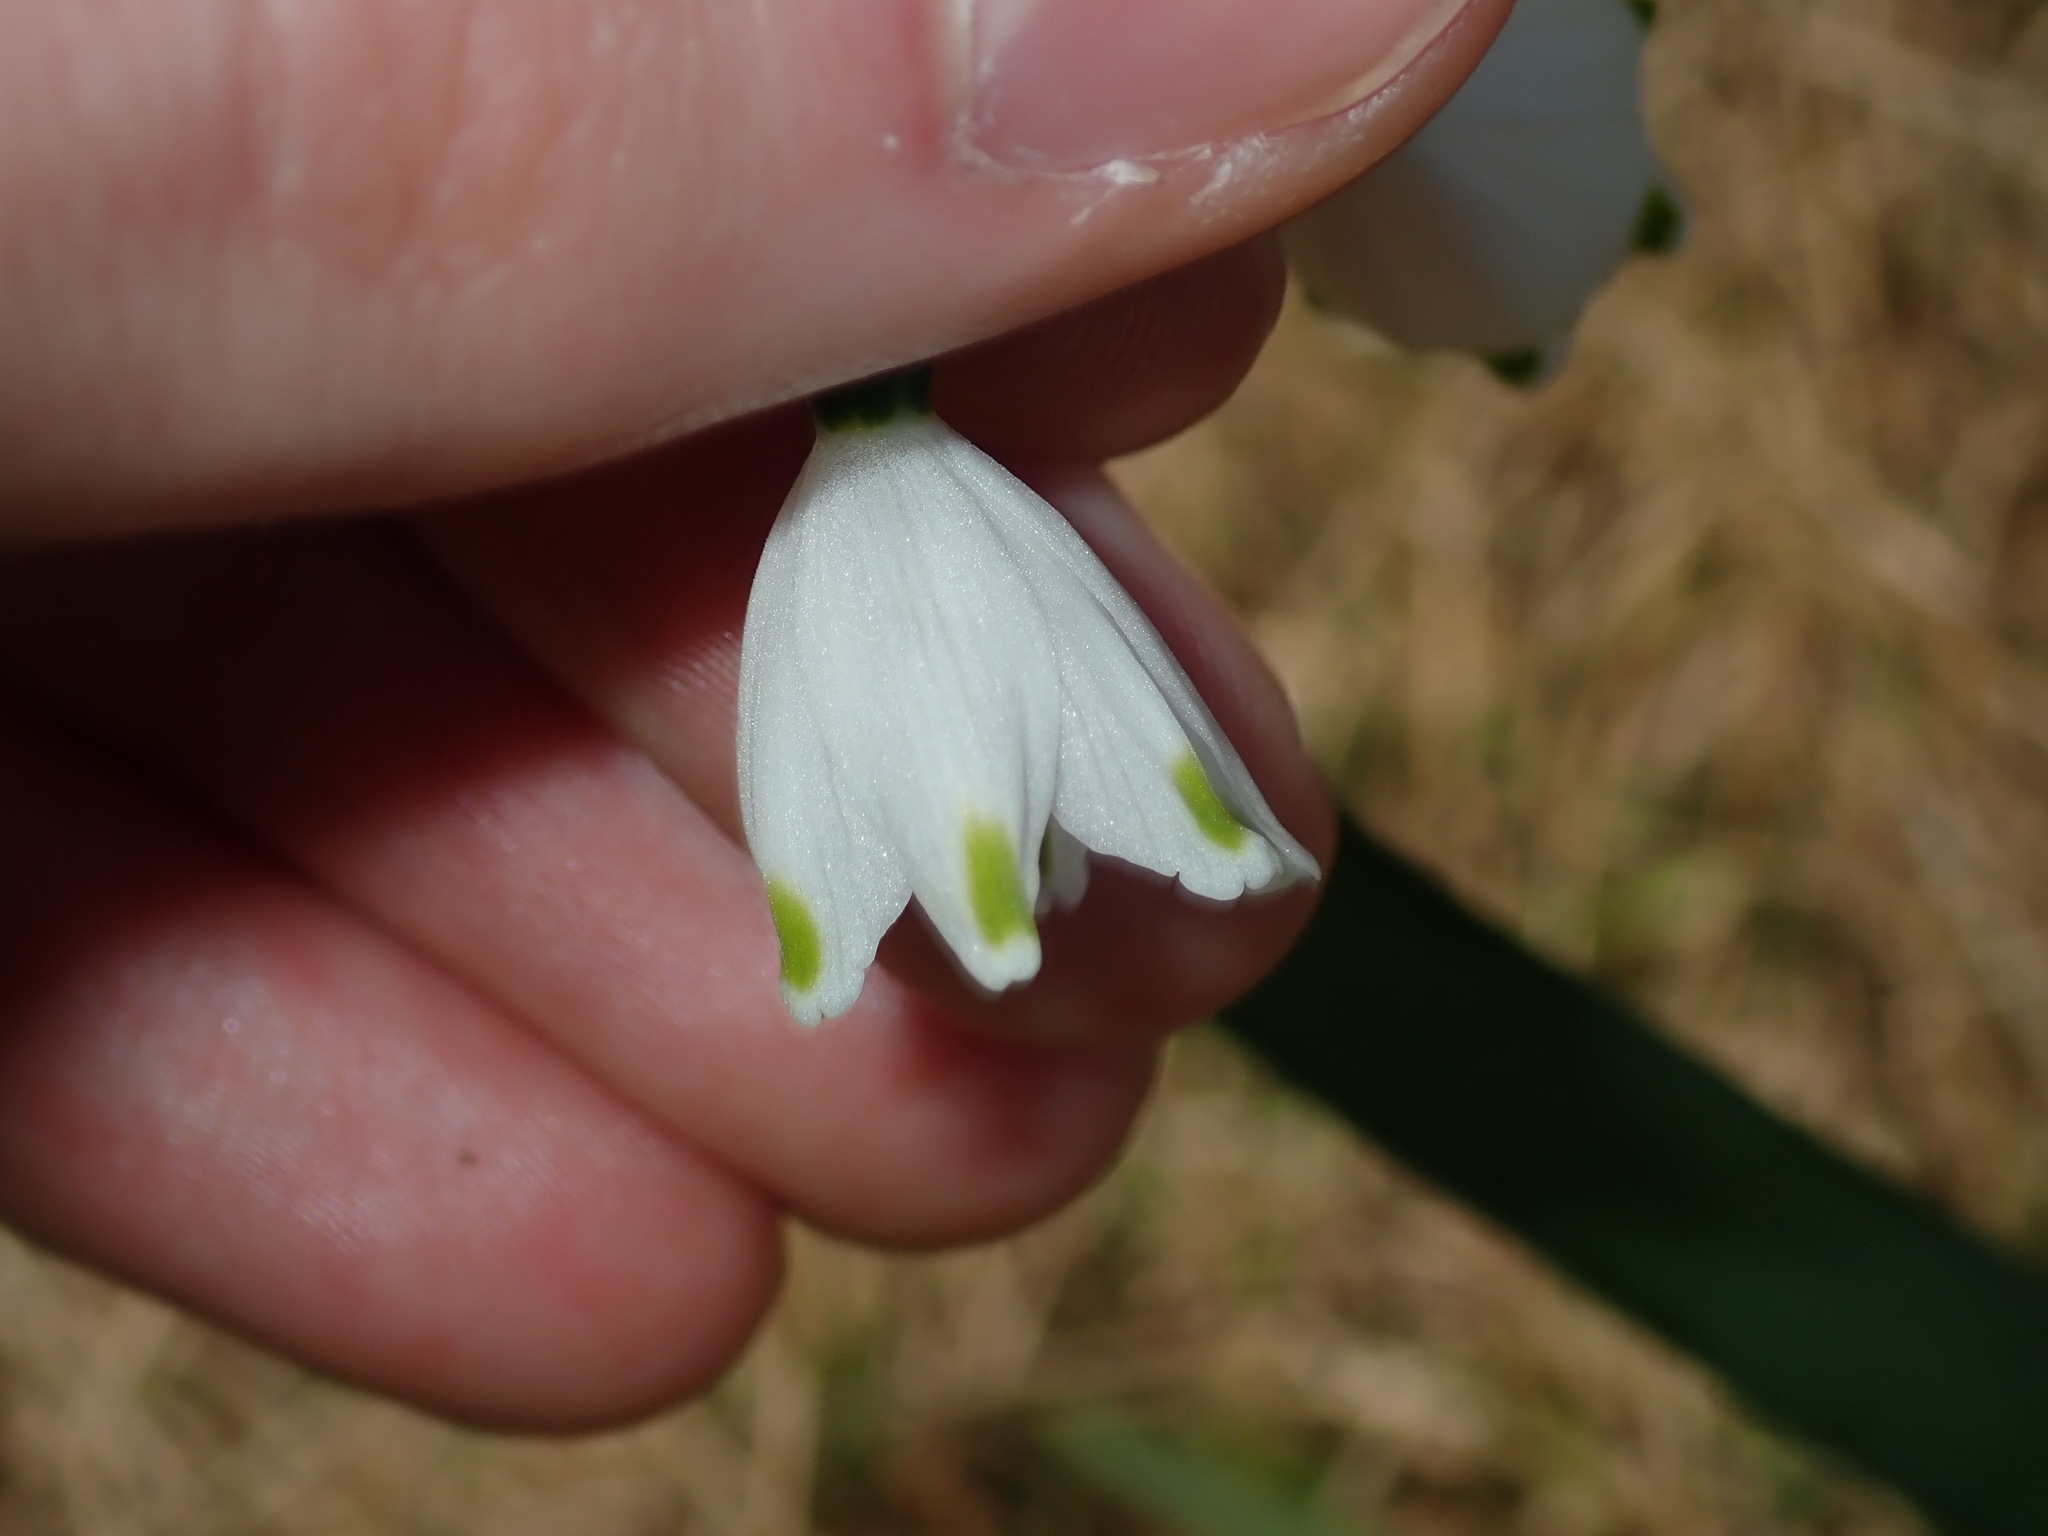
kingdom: Plantae
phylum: Tracheophyta
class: Liliopsida
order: Asparagales
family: Amaryllidaceae
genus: Leucojum
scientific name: Leucojum aestivum
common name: Summer snowflake
